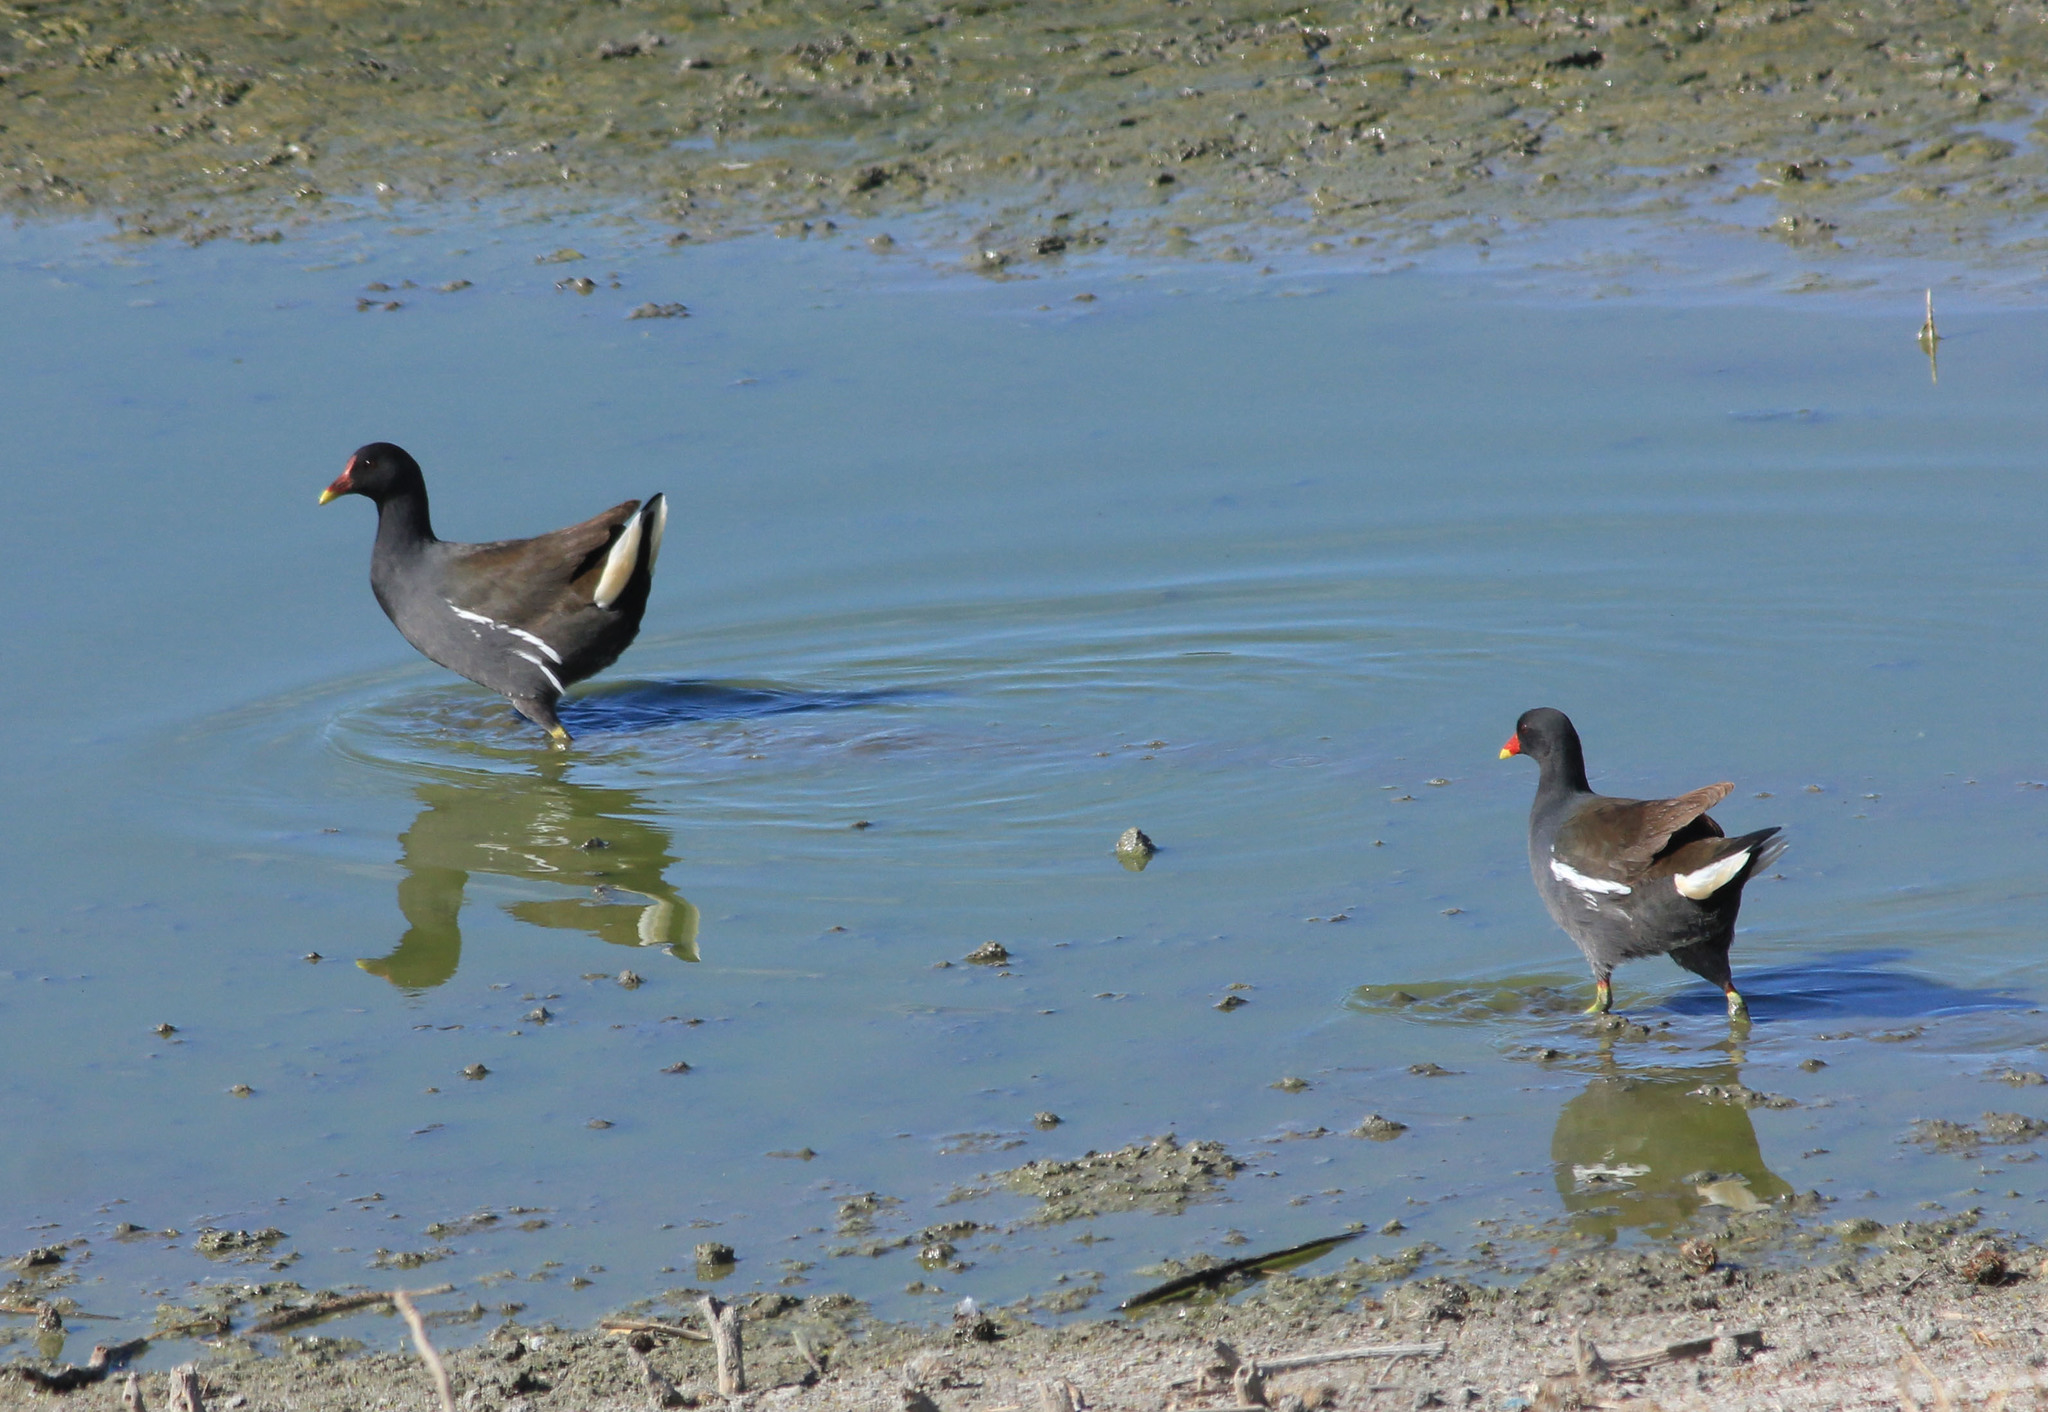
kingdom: Animalia
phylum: Chordata
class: Aves
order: Gruiformes
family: Rallidae
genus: Gallinula
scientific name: Gallinula chloropus
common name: Common moorhen
